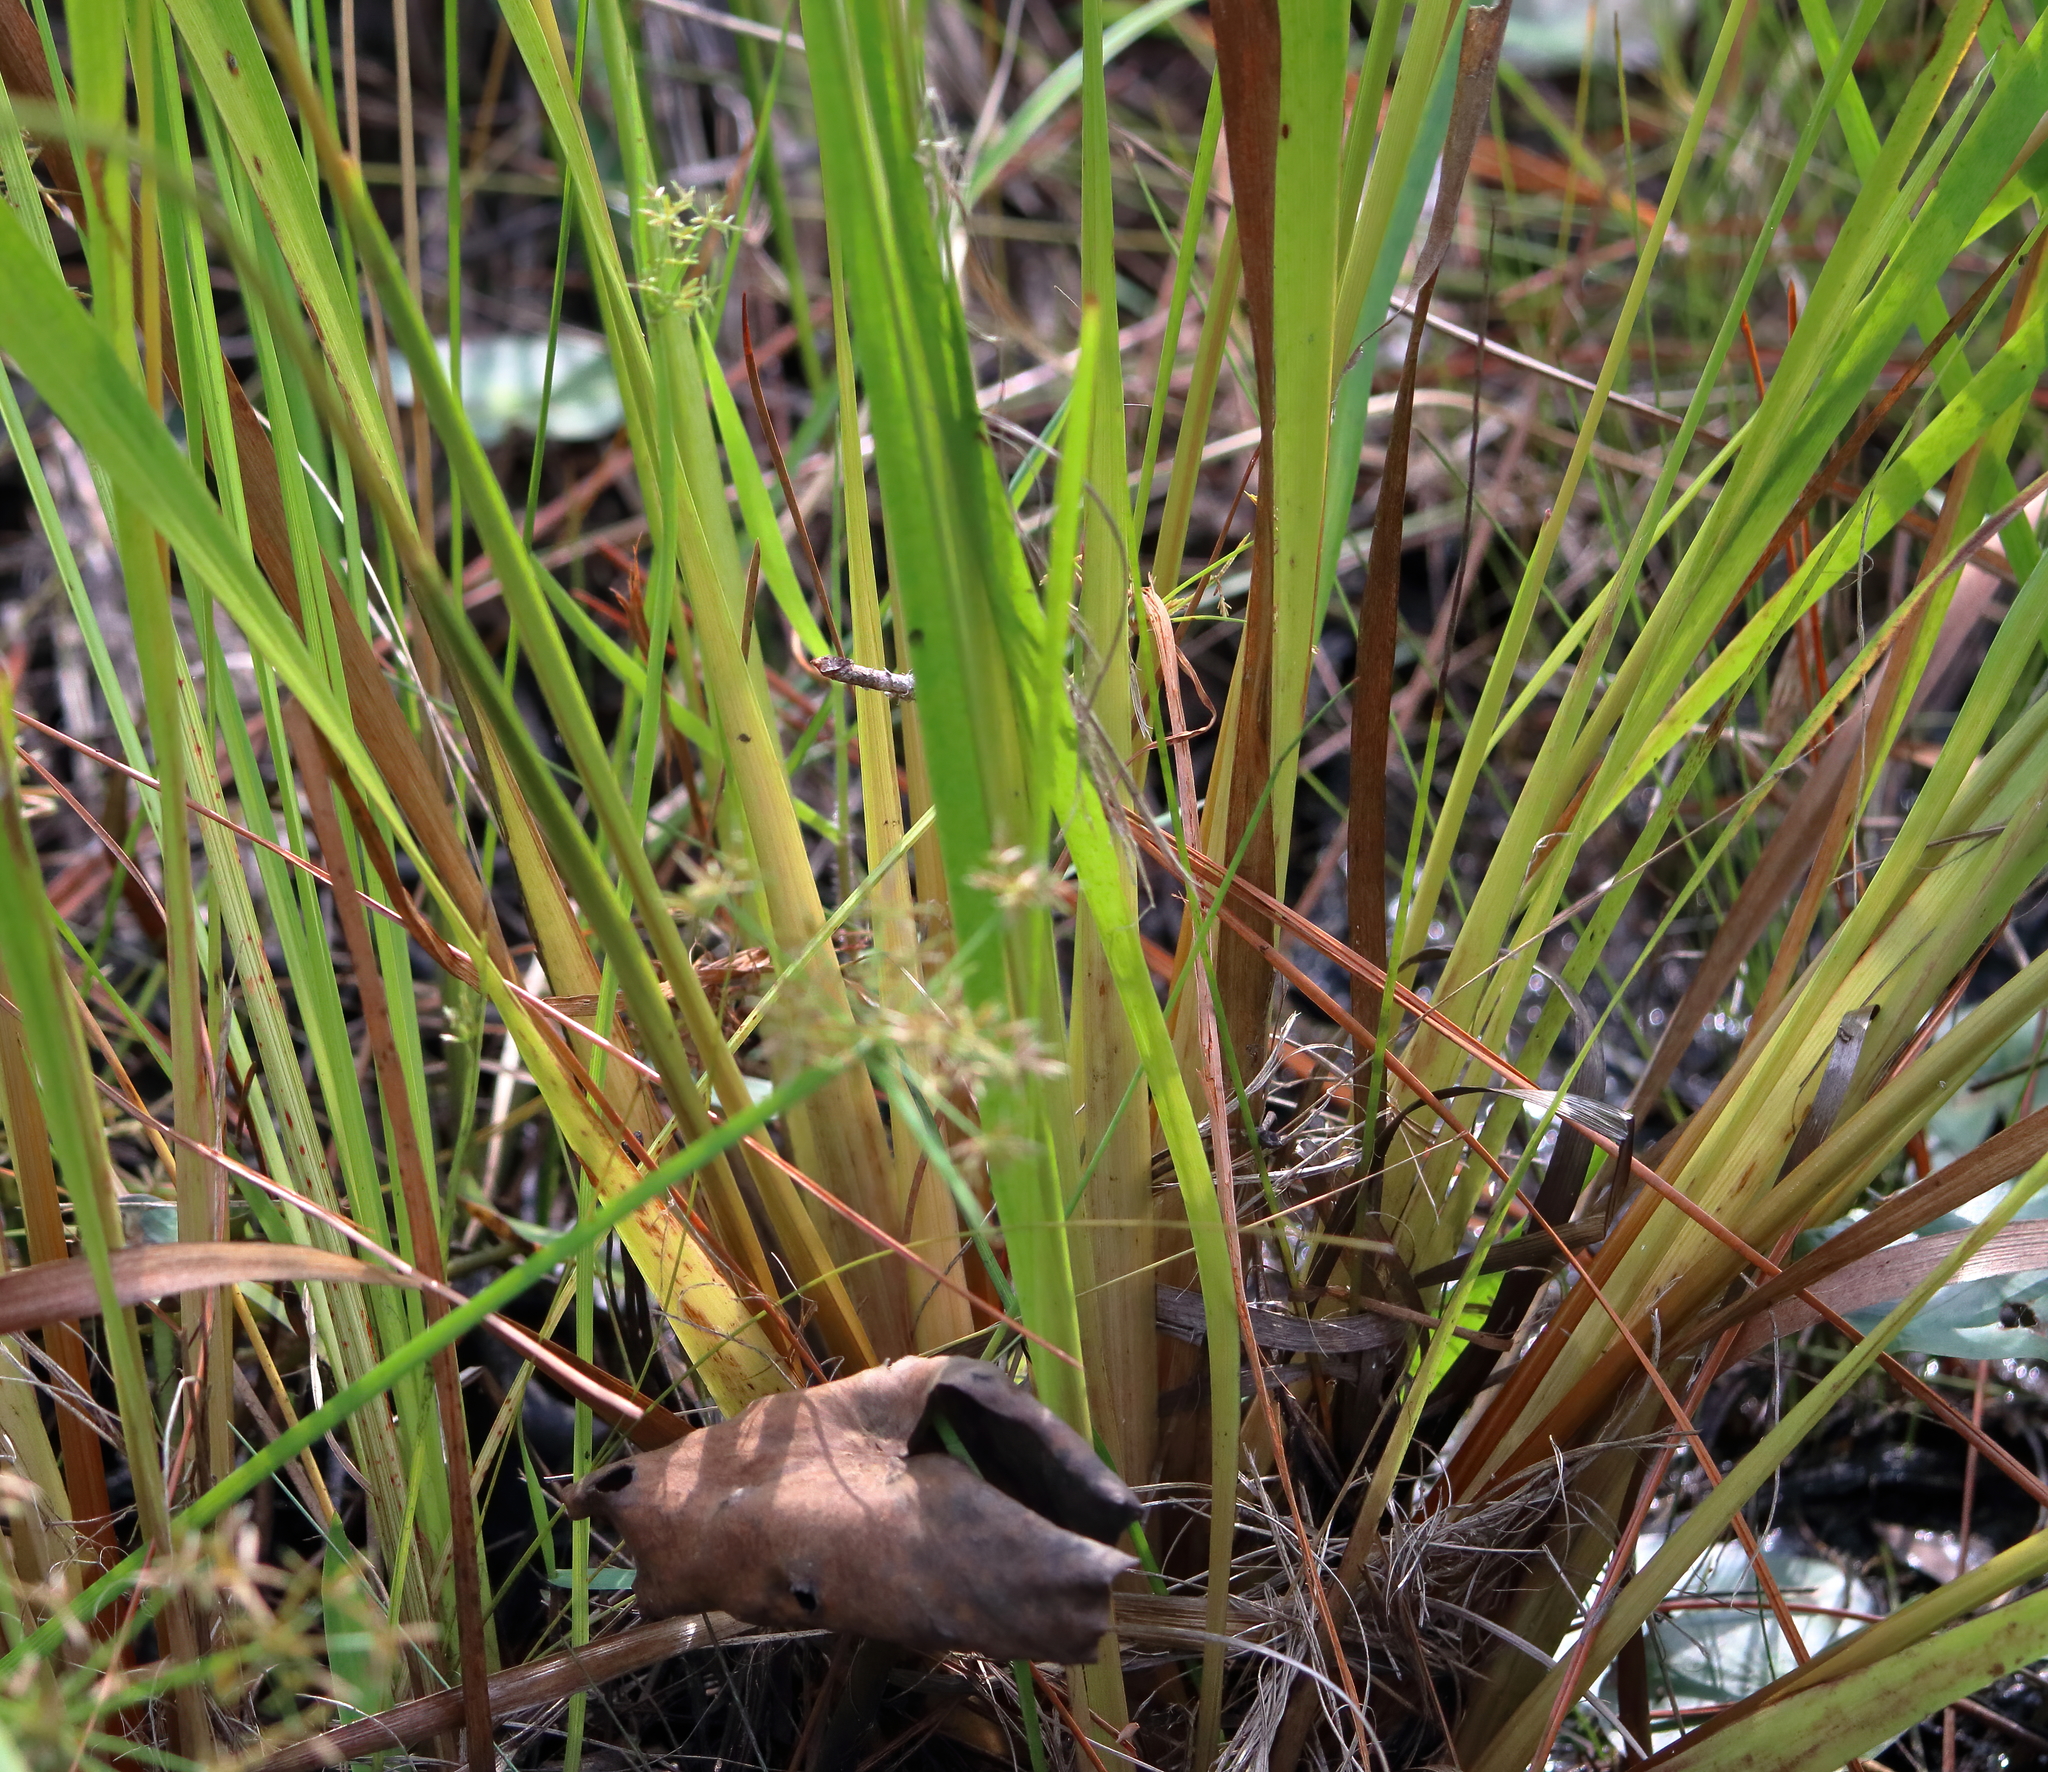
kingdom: Plantae
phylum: Tracheophyta
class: Liliopsida
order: Poales
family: Xyridaceae
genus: Xyris
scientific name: Xyris fimbriata
